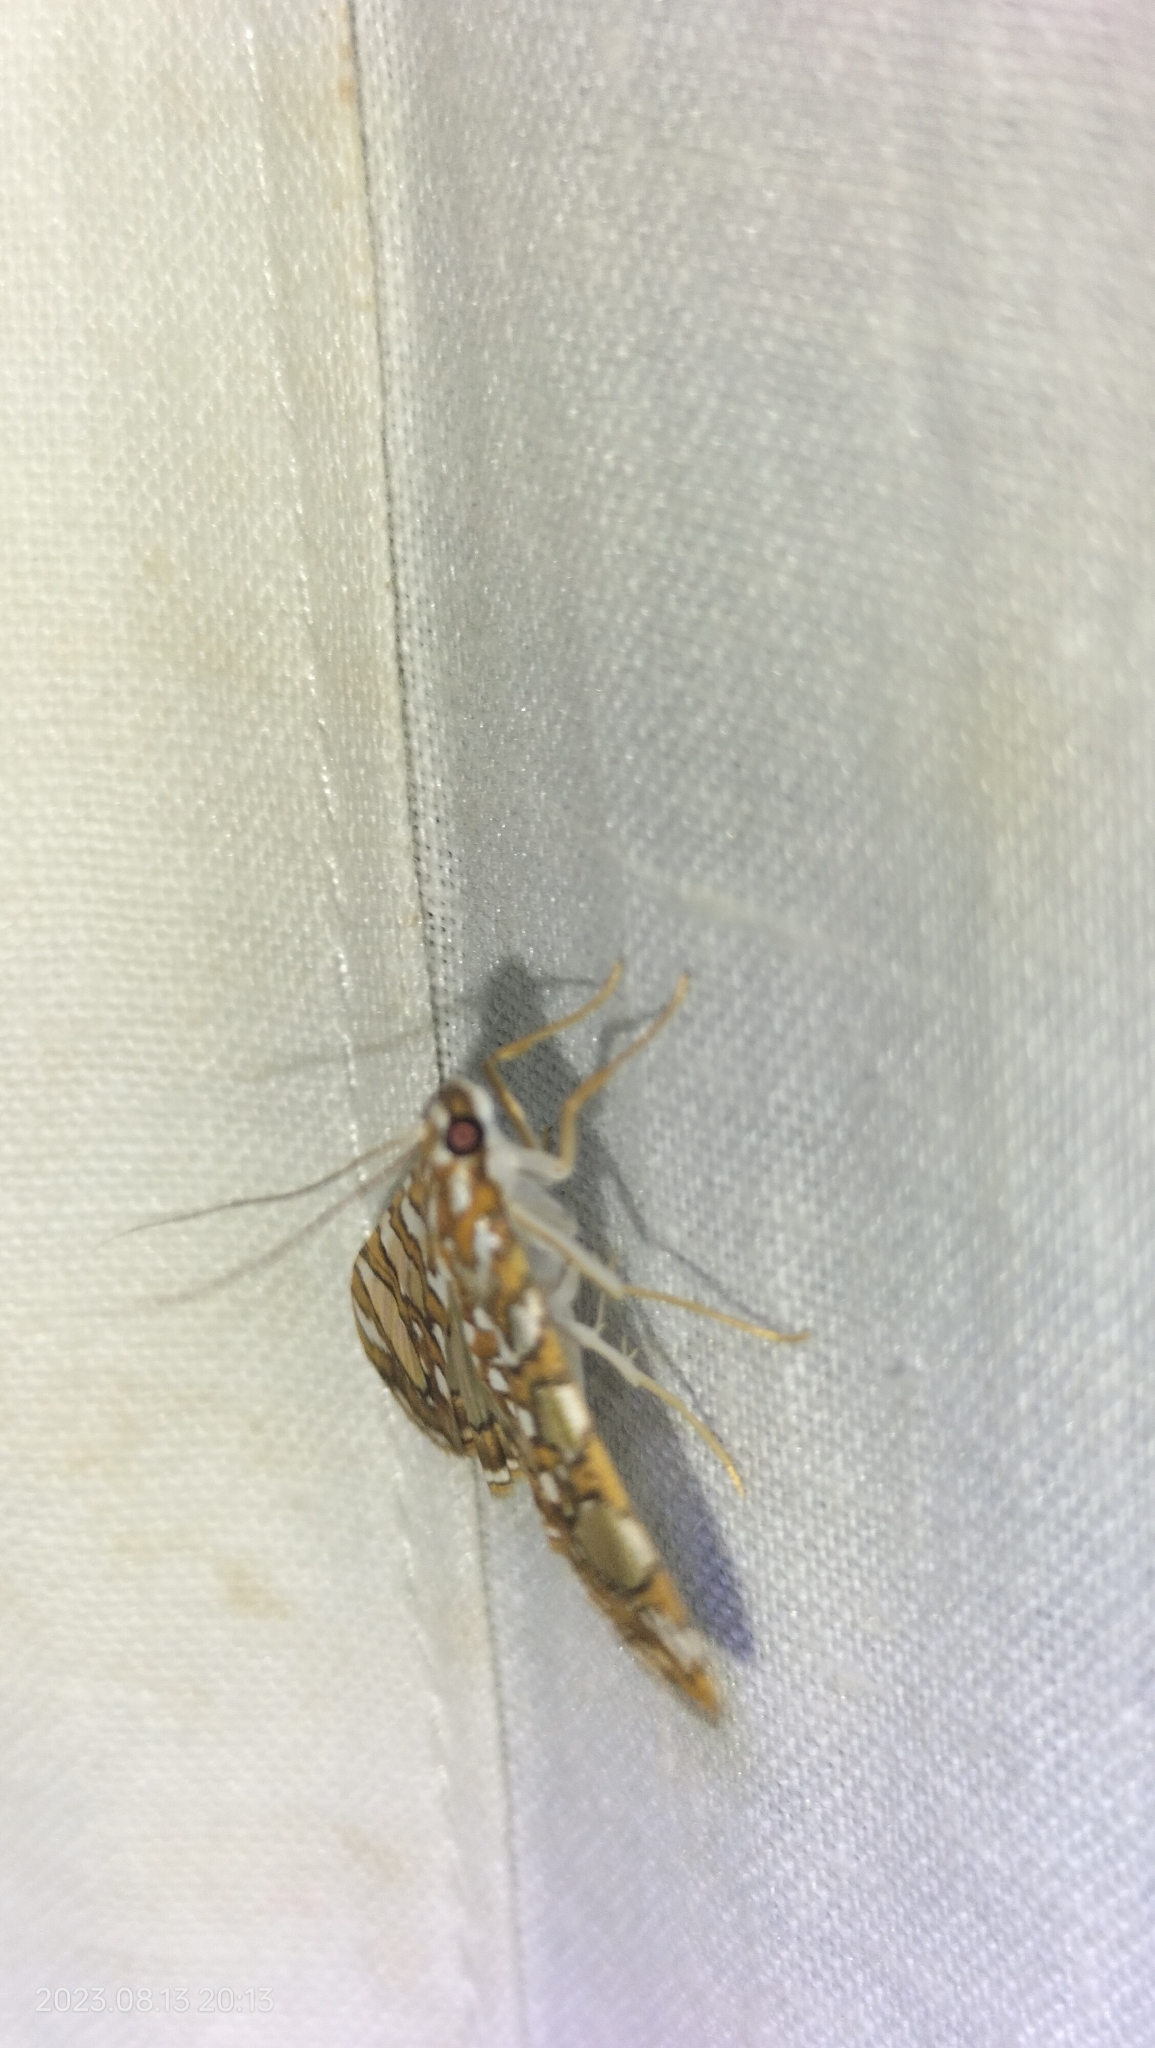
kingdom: Animalia
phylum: Arthropoda
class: Insecta
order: Lepidoptera
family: Crambidae
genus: Glyphodes
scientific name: Glyphodes sibillalis
